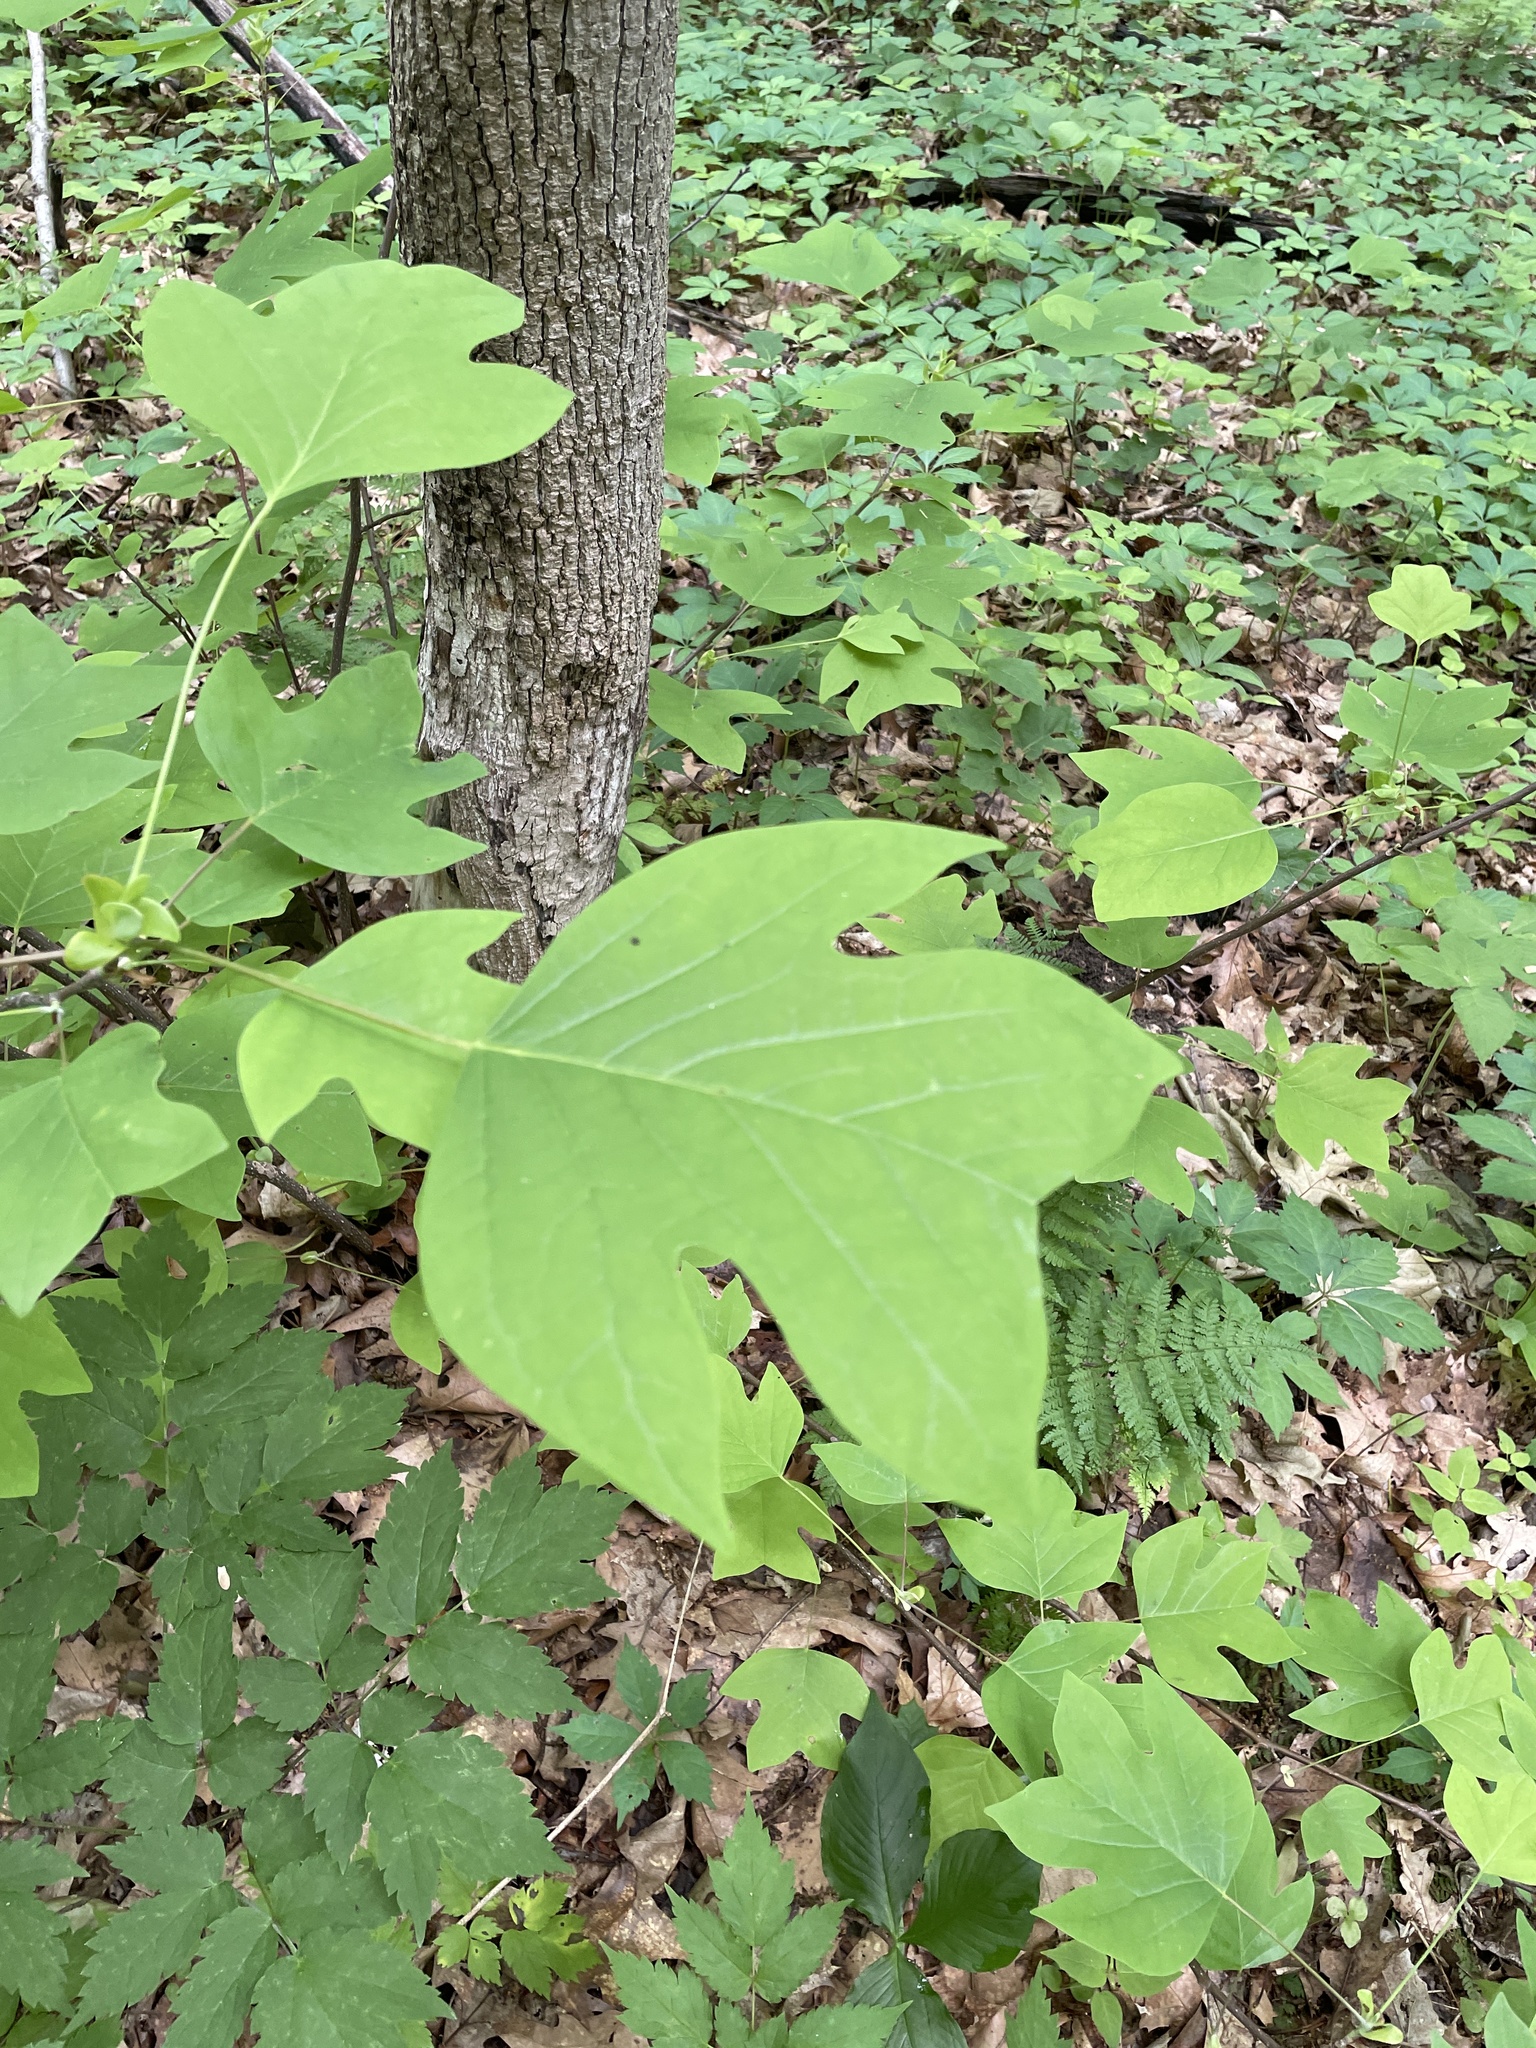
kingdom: Plantae
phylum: Tracheophyta
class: Magnoliopsida
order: Magnoliales
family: Magnoliaceae
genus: Liriodendron
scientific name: Liriodendron tulipifera
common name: Tulip tree
